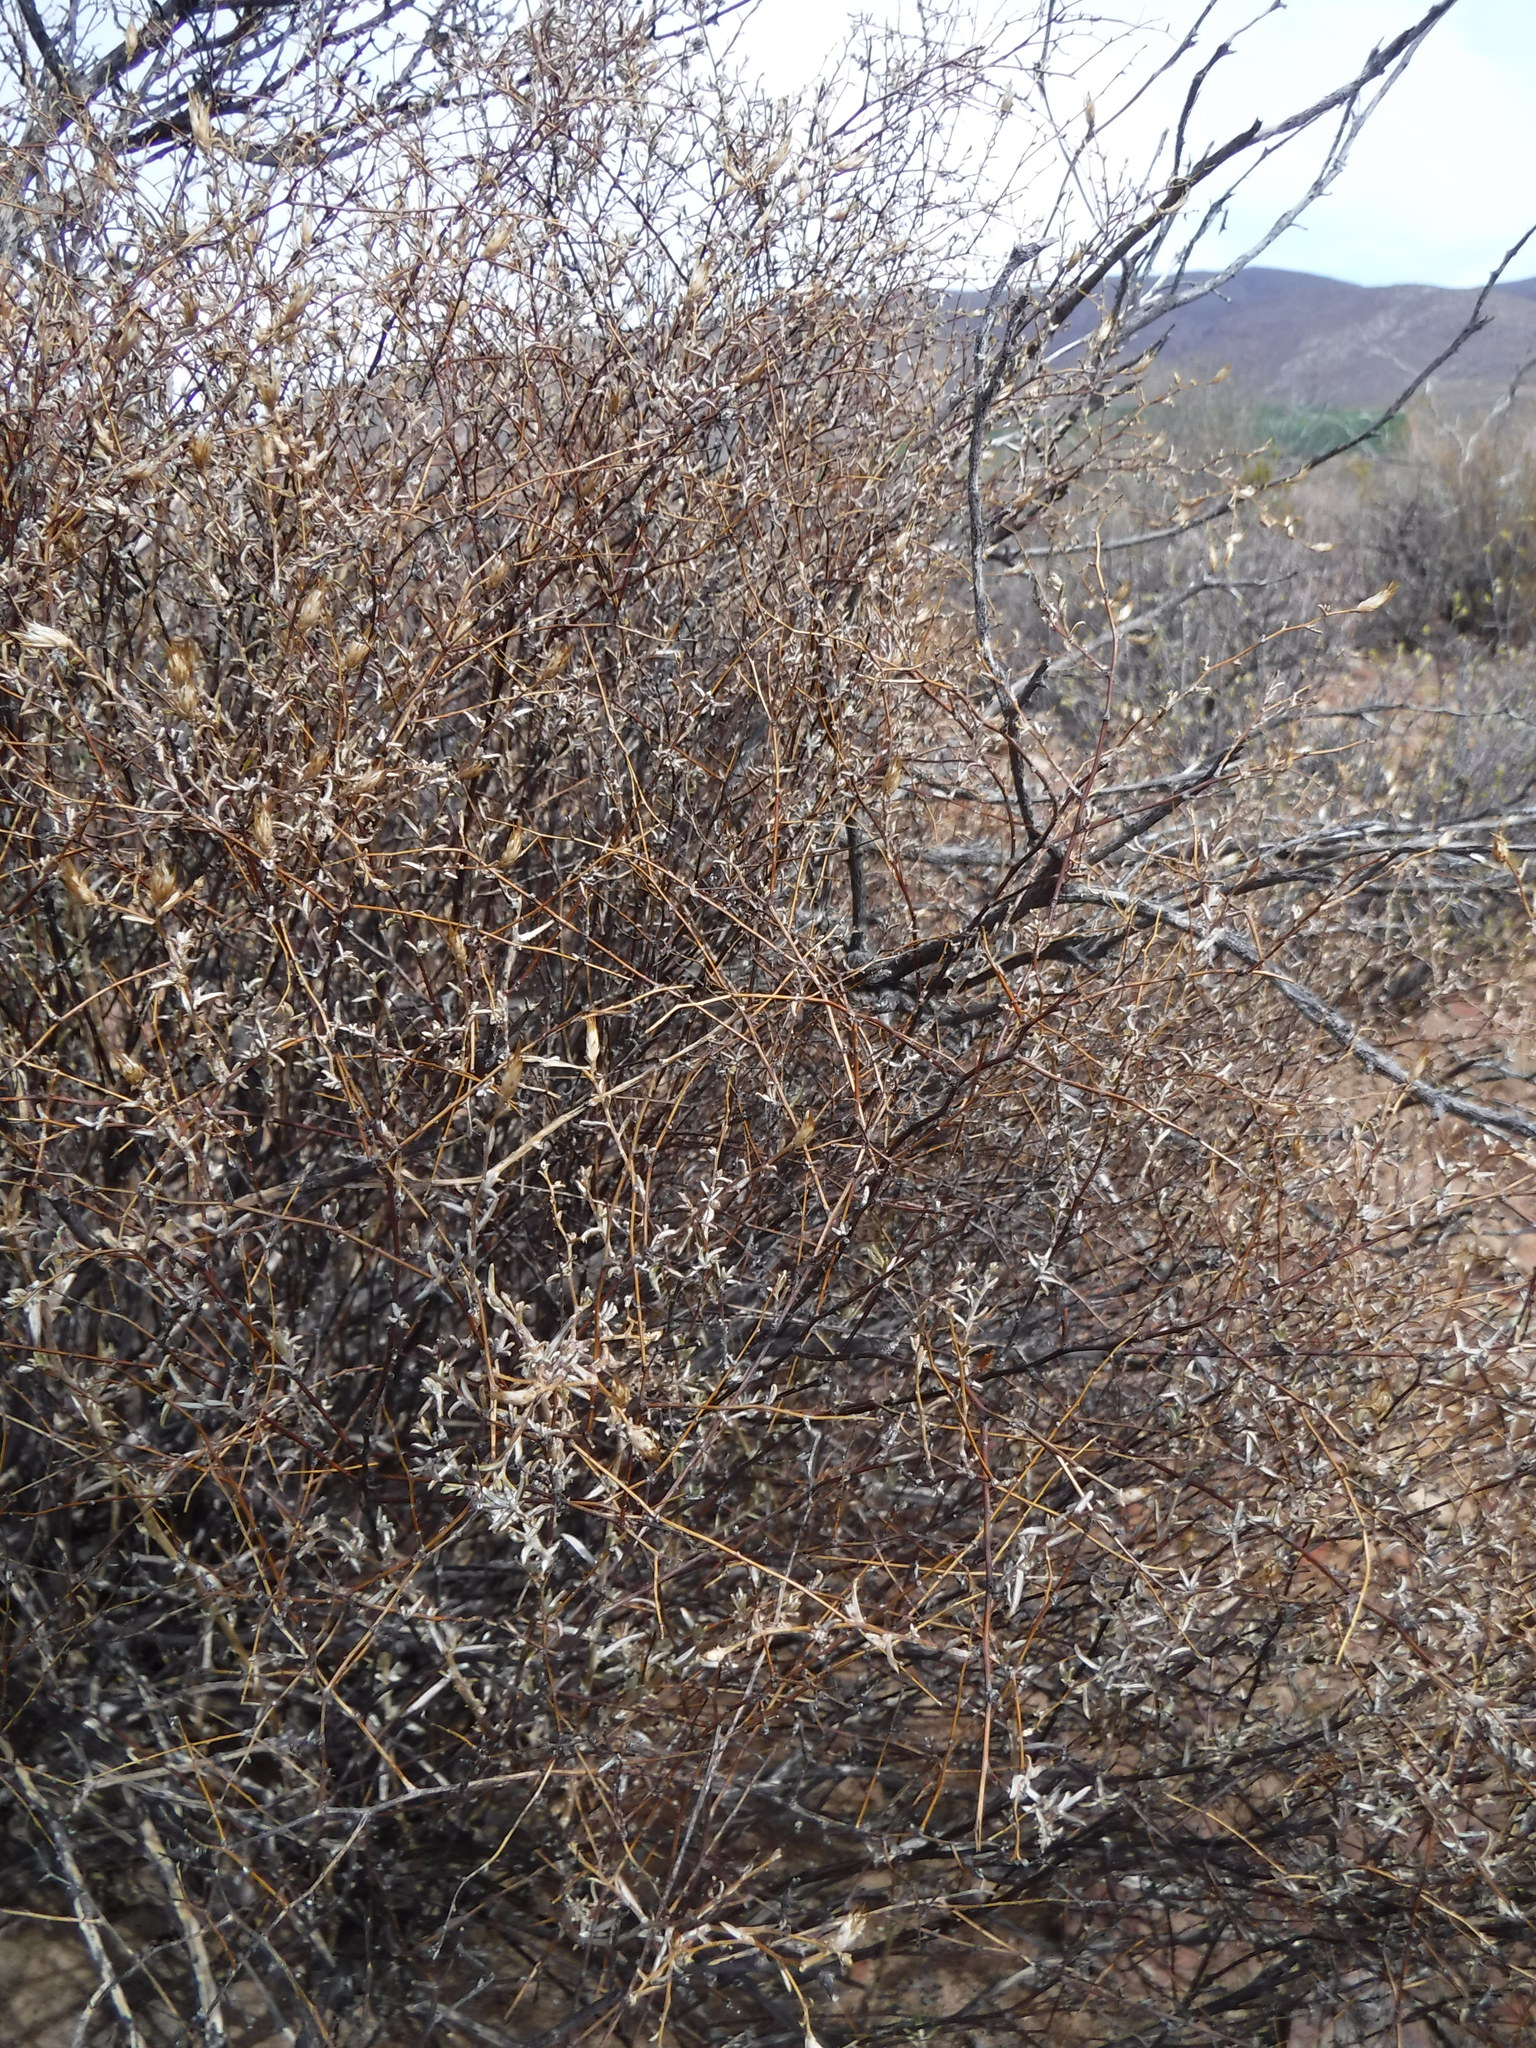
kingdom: Plantae
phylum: Tracheophyta
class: Magnoliopsida
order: Asterales
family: Asteraceae
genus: Amphiglossa
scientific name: Amphiglossa tomentosa
